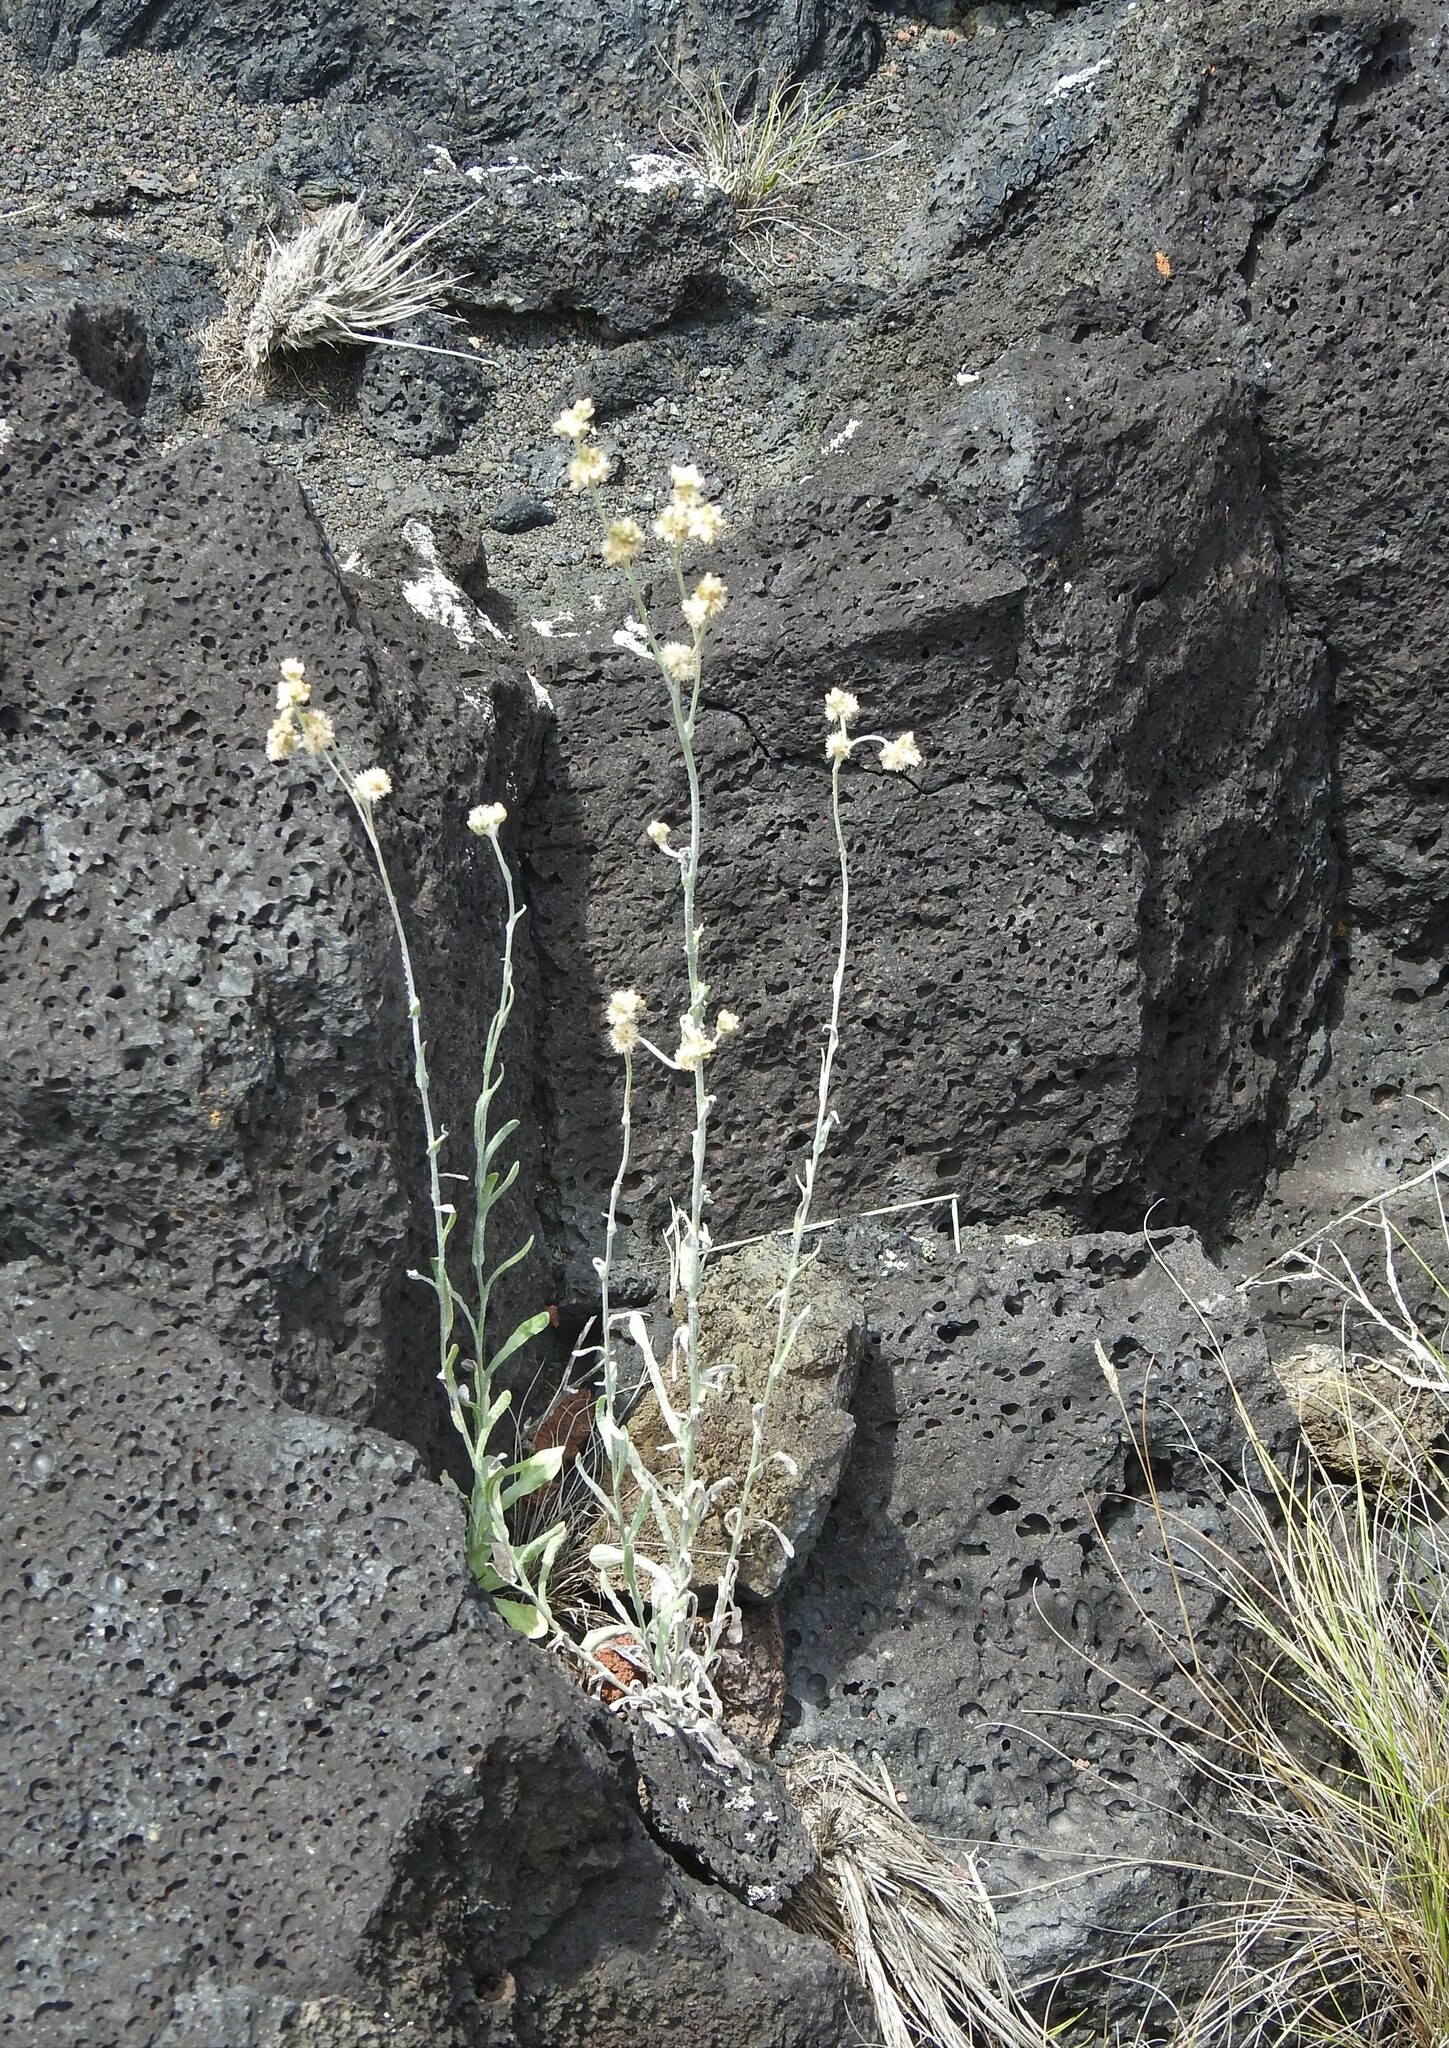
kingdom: Plantae
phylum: Tracheophyta
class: Magnoliopsida
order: Asterales
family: Asteraceae
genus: Helichrysum
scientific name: Helichrysum luteoalbum
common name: Daisy
